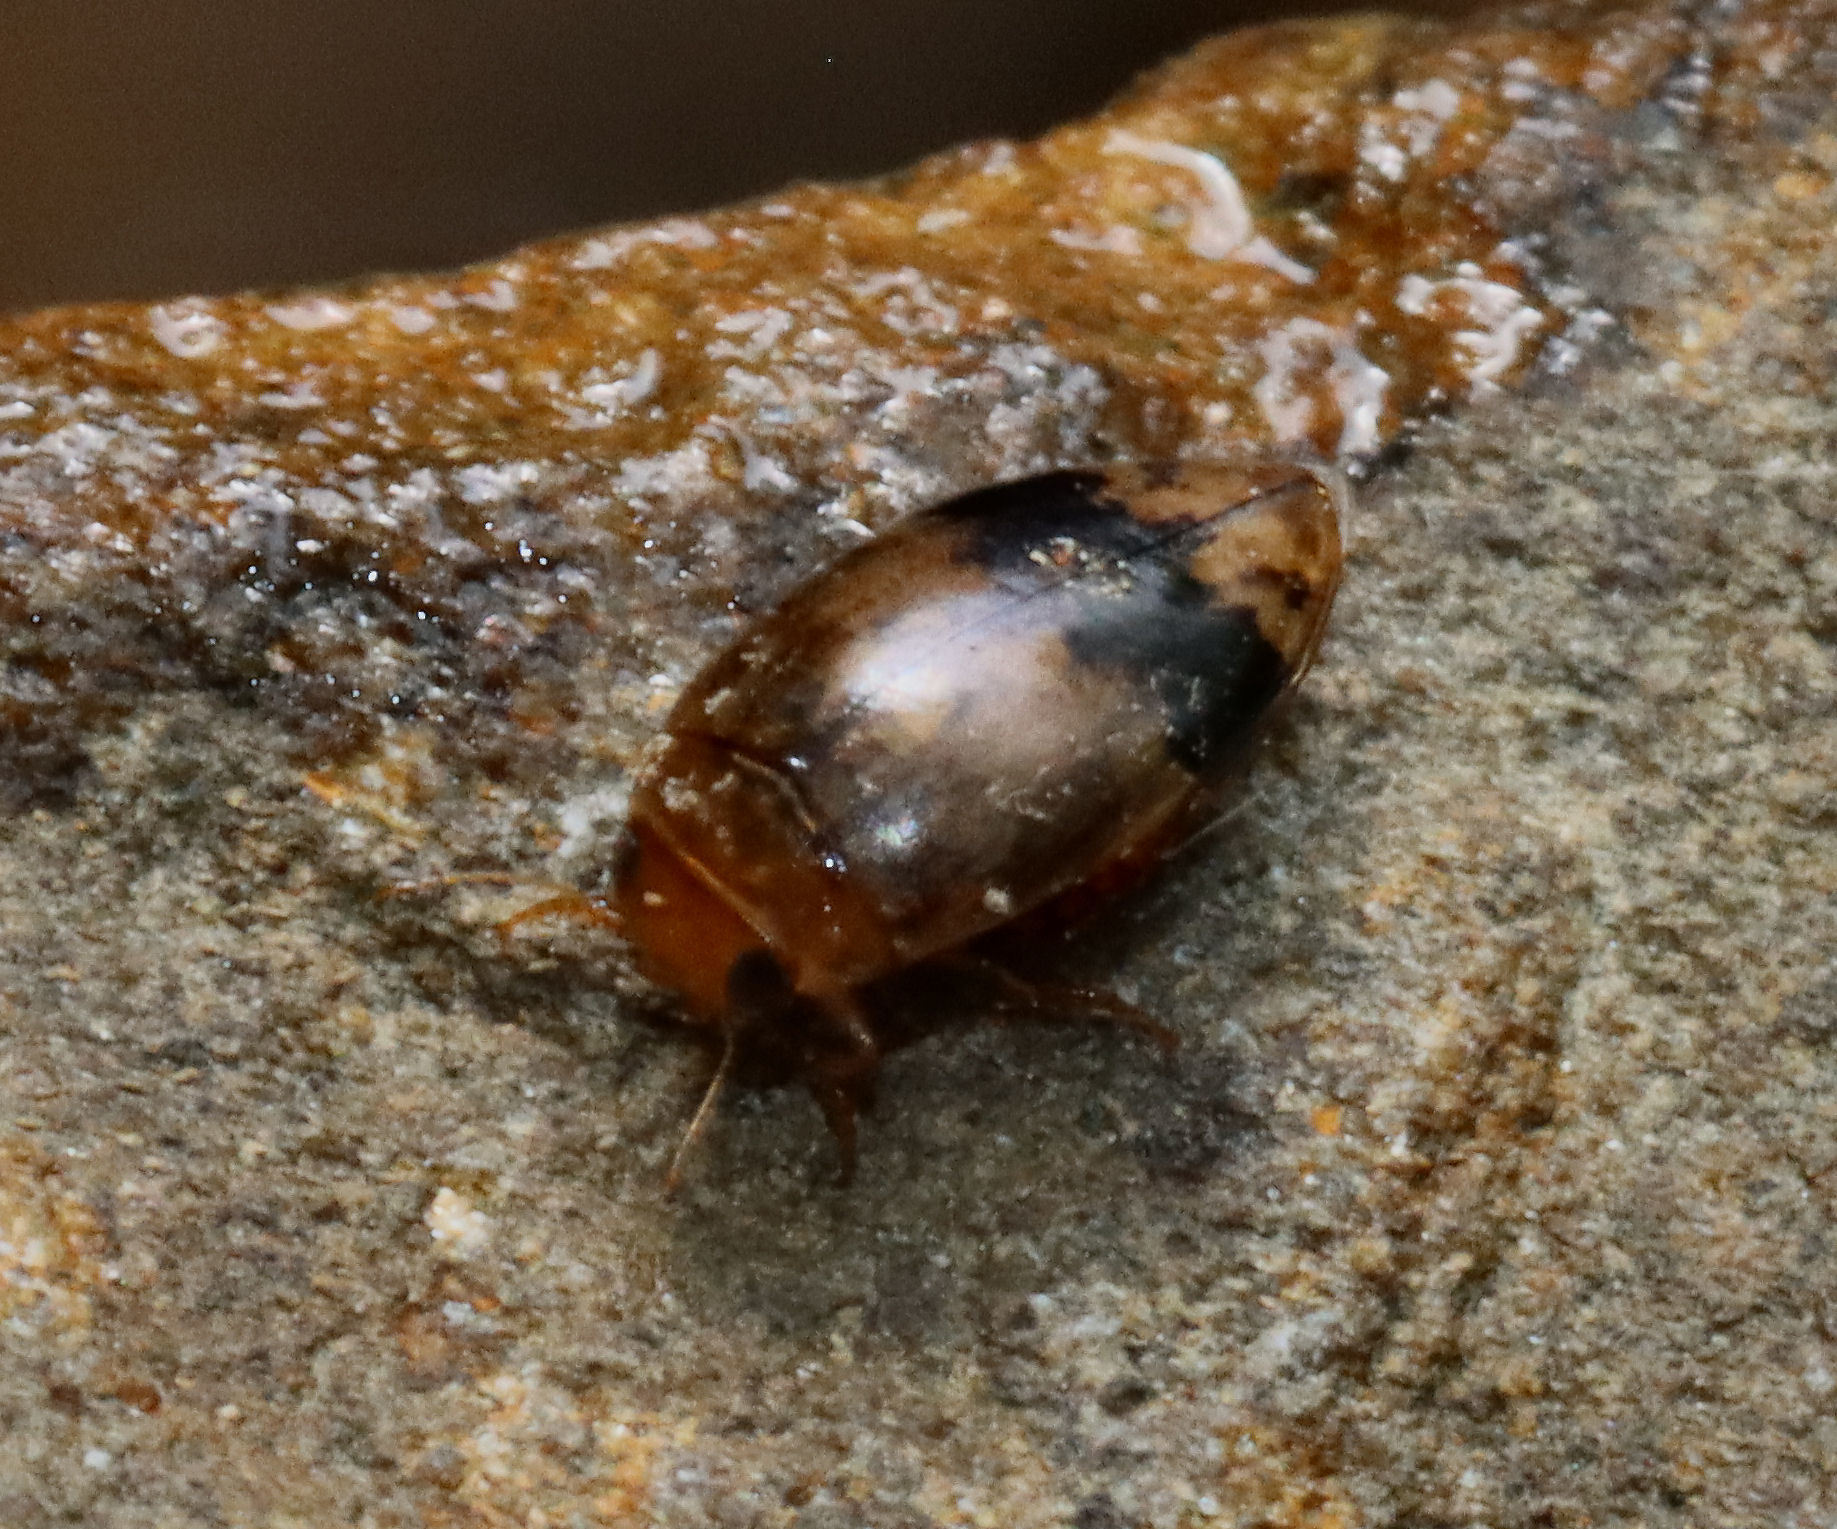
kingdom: Animalia
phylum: Arthropoda
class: Insecta
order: Coleoptera
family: Dytiscidae
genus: Laccophilus
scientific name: Laccophilus fasciatus
